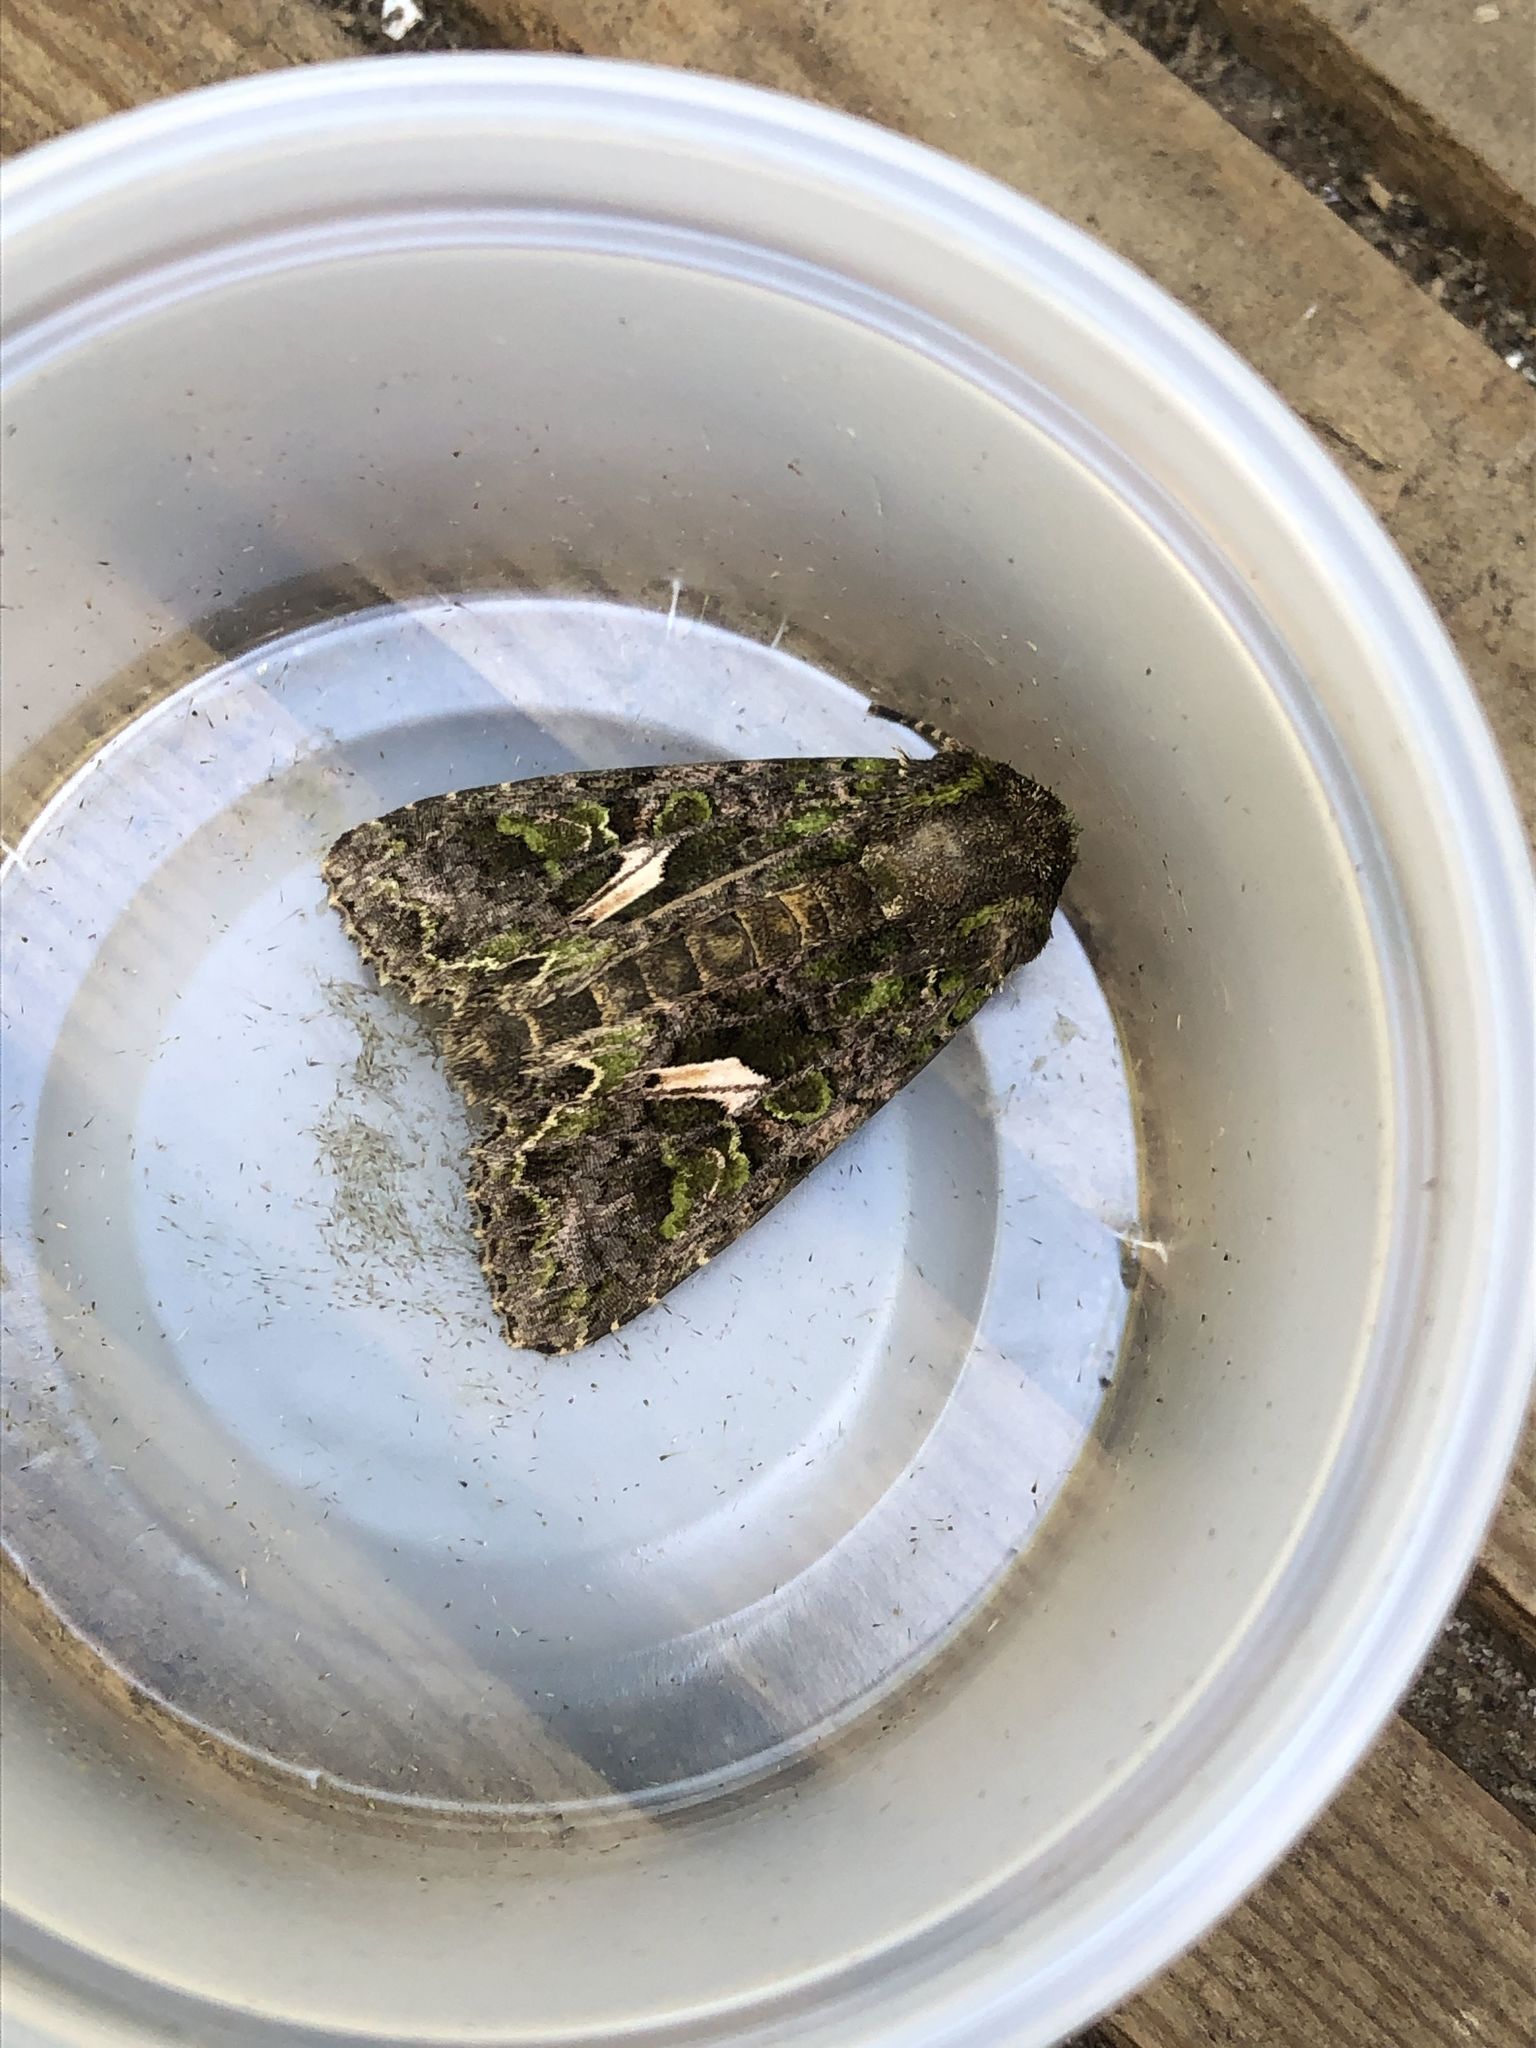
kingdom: Animalia
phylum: Arthropoda
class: Insecta
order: Lepidoptera
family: Noctuidae
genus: Trachea
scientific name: Trachea atriplicis
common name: Orache moth
